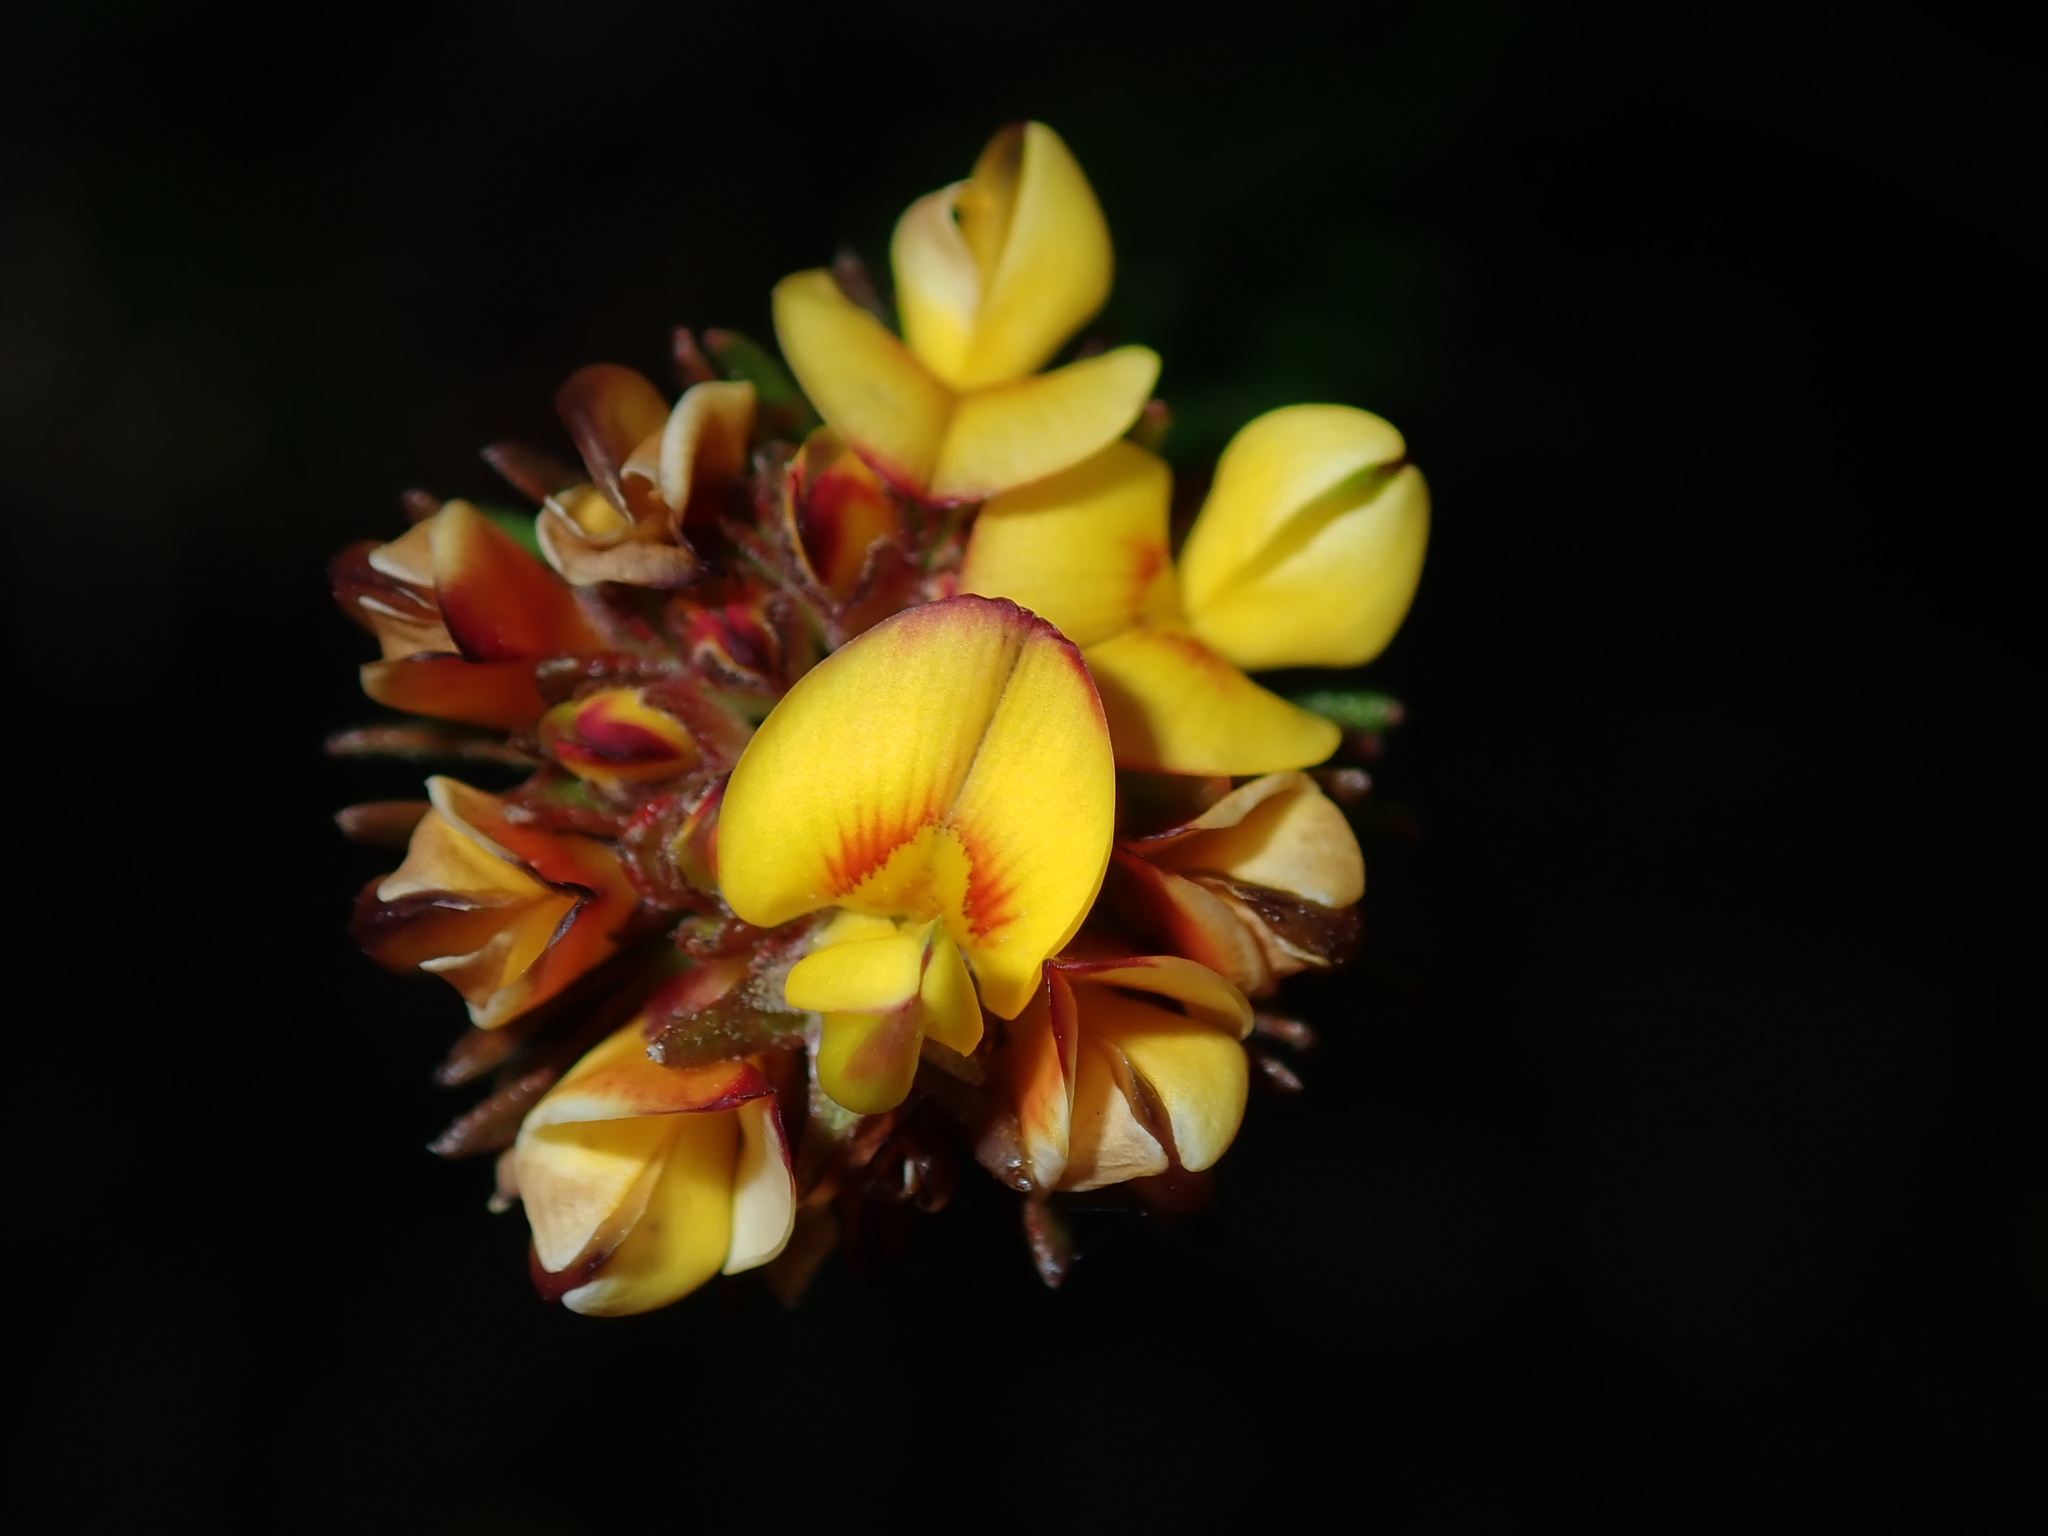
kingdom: Plantae
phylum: Tracheophyta
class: Magnoliopsida
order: Fabales
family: Fabaceae
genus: Phyllota
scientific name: Phyllota phylicoides
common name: Heath phyllota
